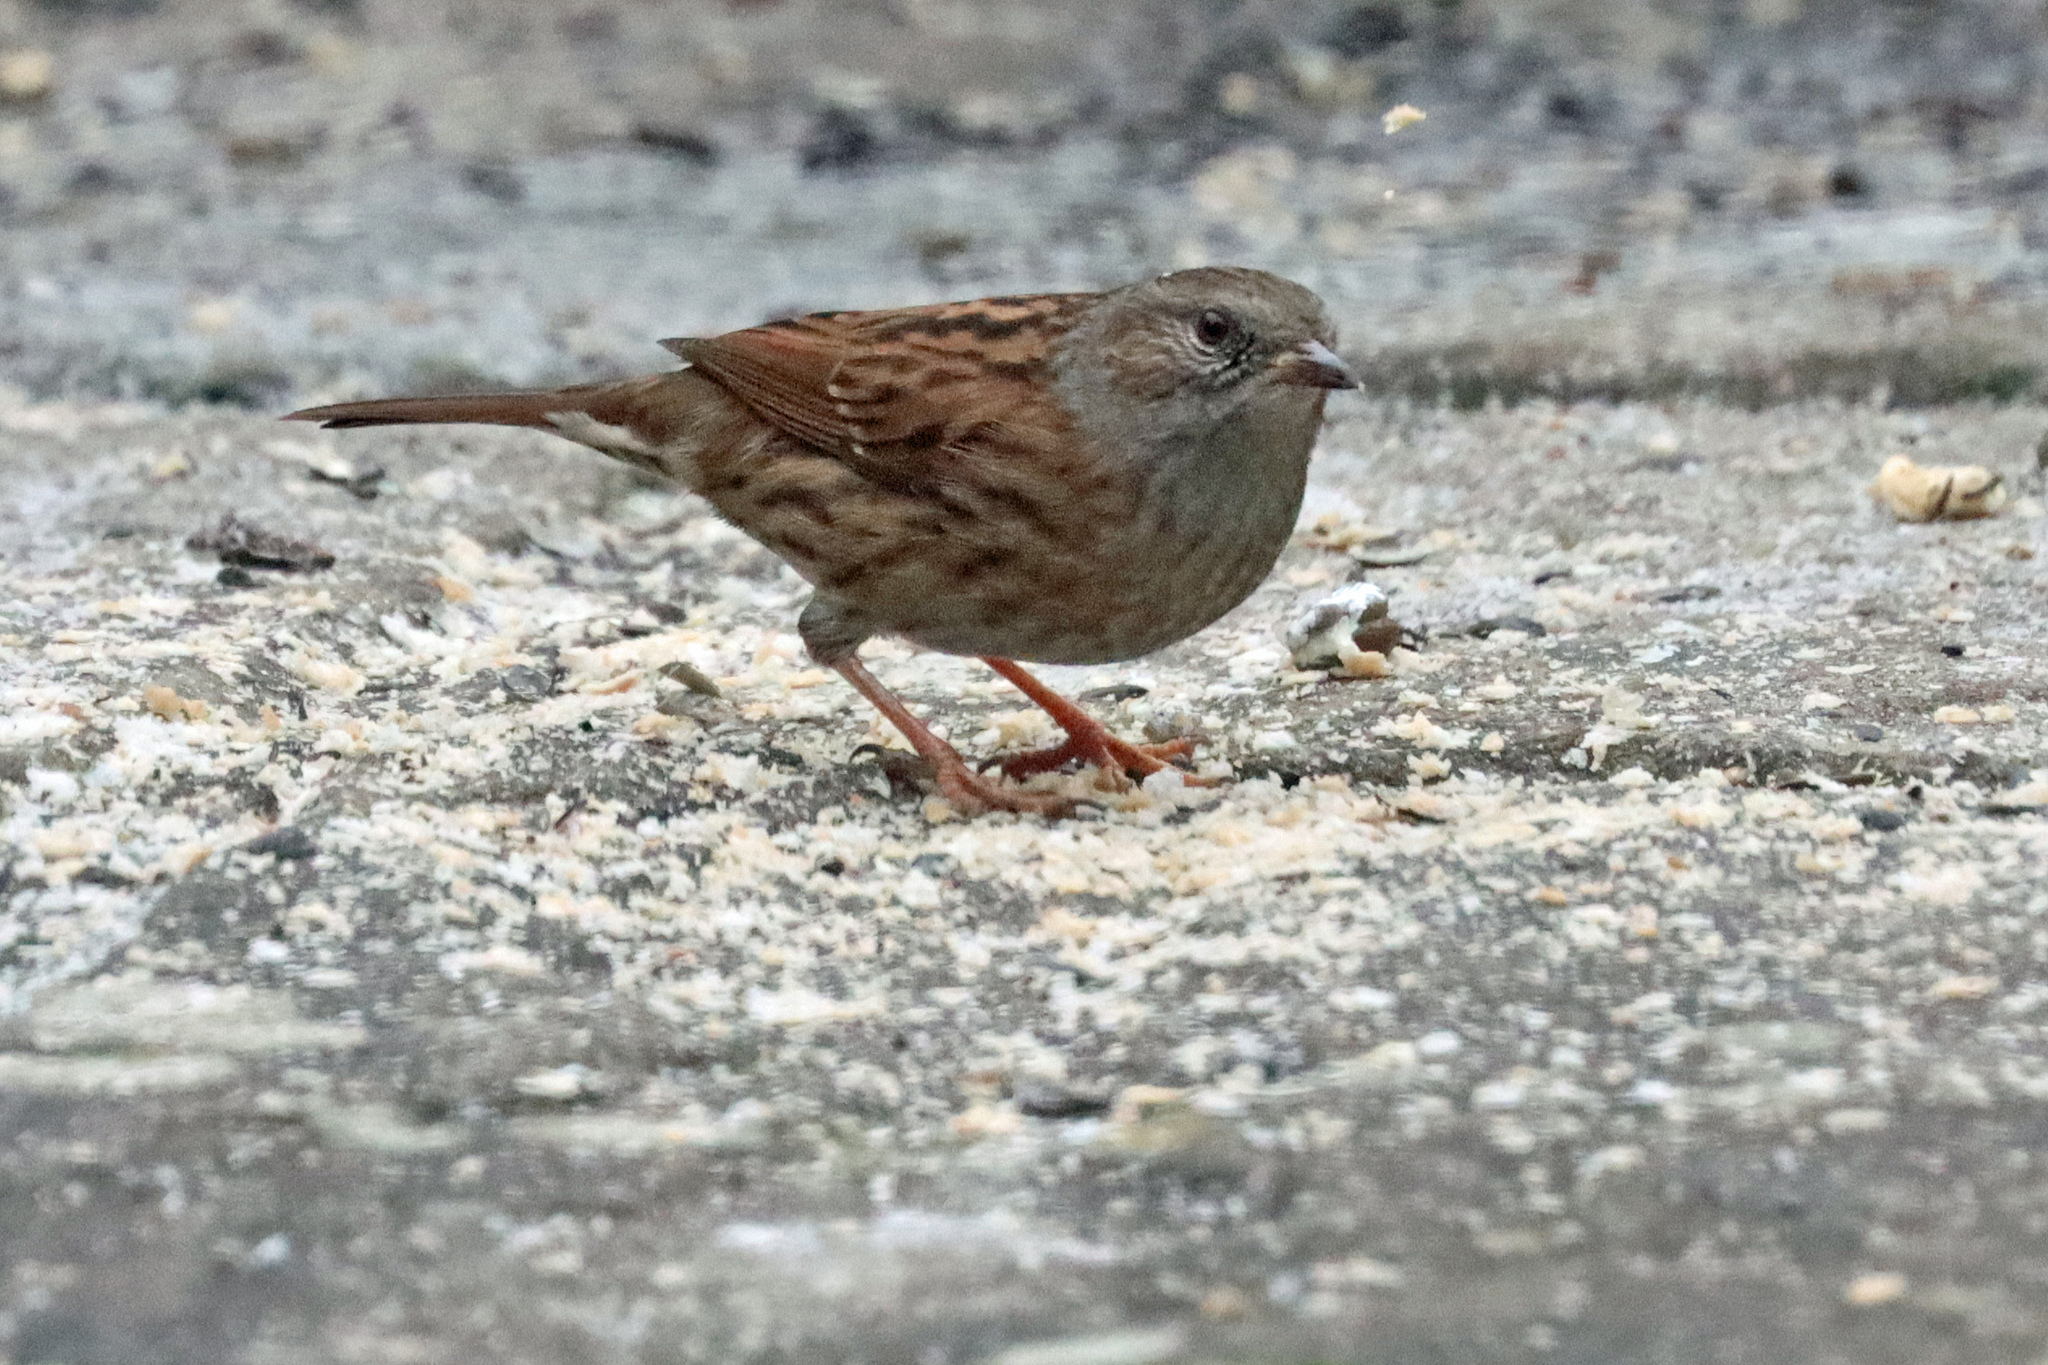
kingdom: Animalia
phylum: Chordata
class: Aves
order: Passeriformes
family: Prunellidae
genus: Prunella
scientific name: Prunella modularis
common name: Dunnock
